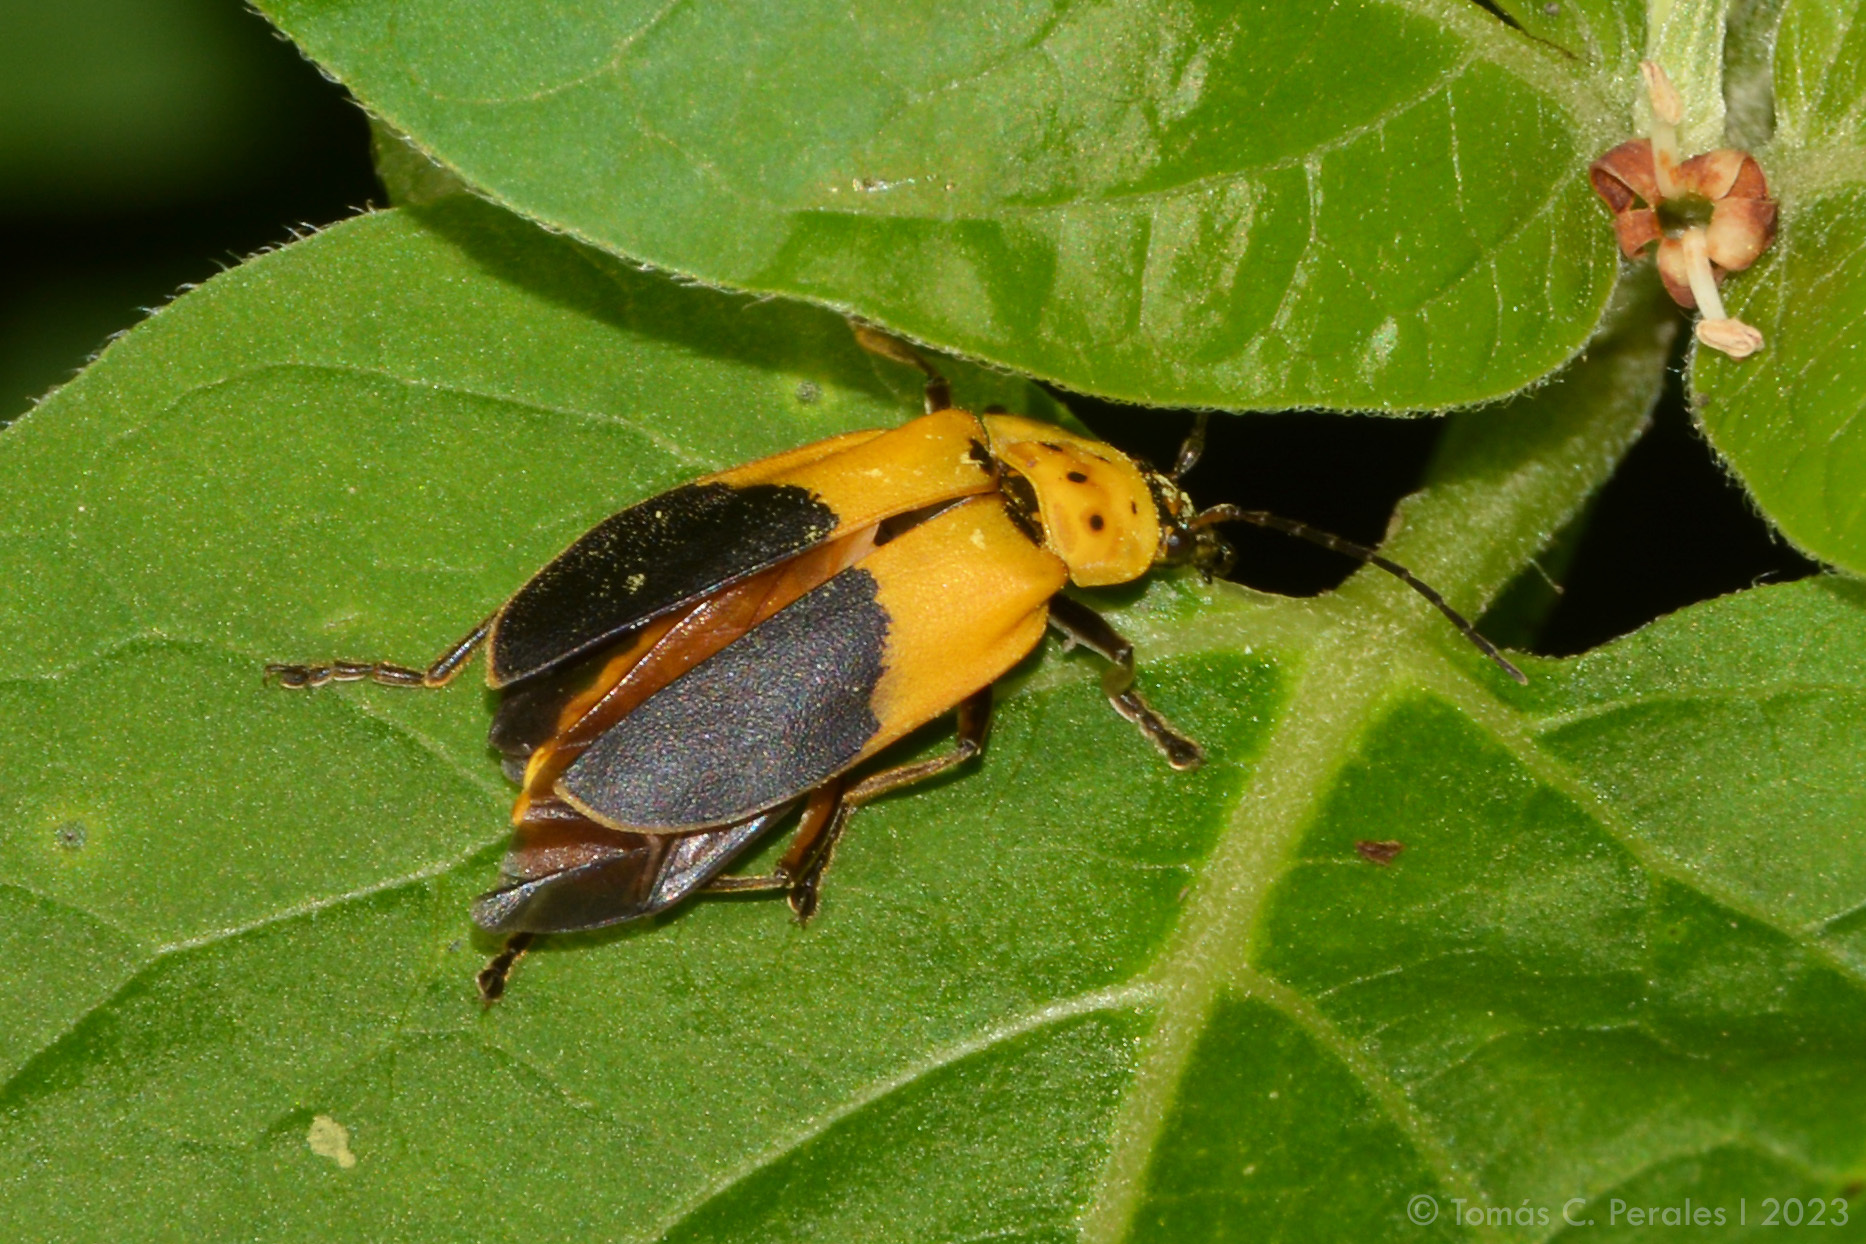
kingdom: Animalia
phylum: Arthropoda
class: Insecta
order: Coleoptera
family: Cantharidae
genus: Chauliognathus
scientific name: Chauliognathus
